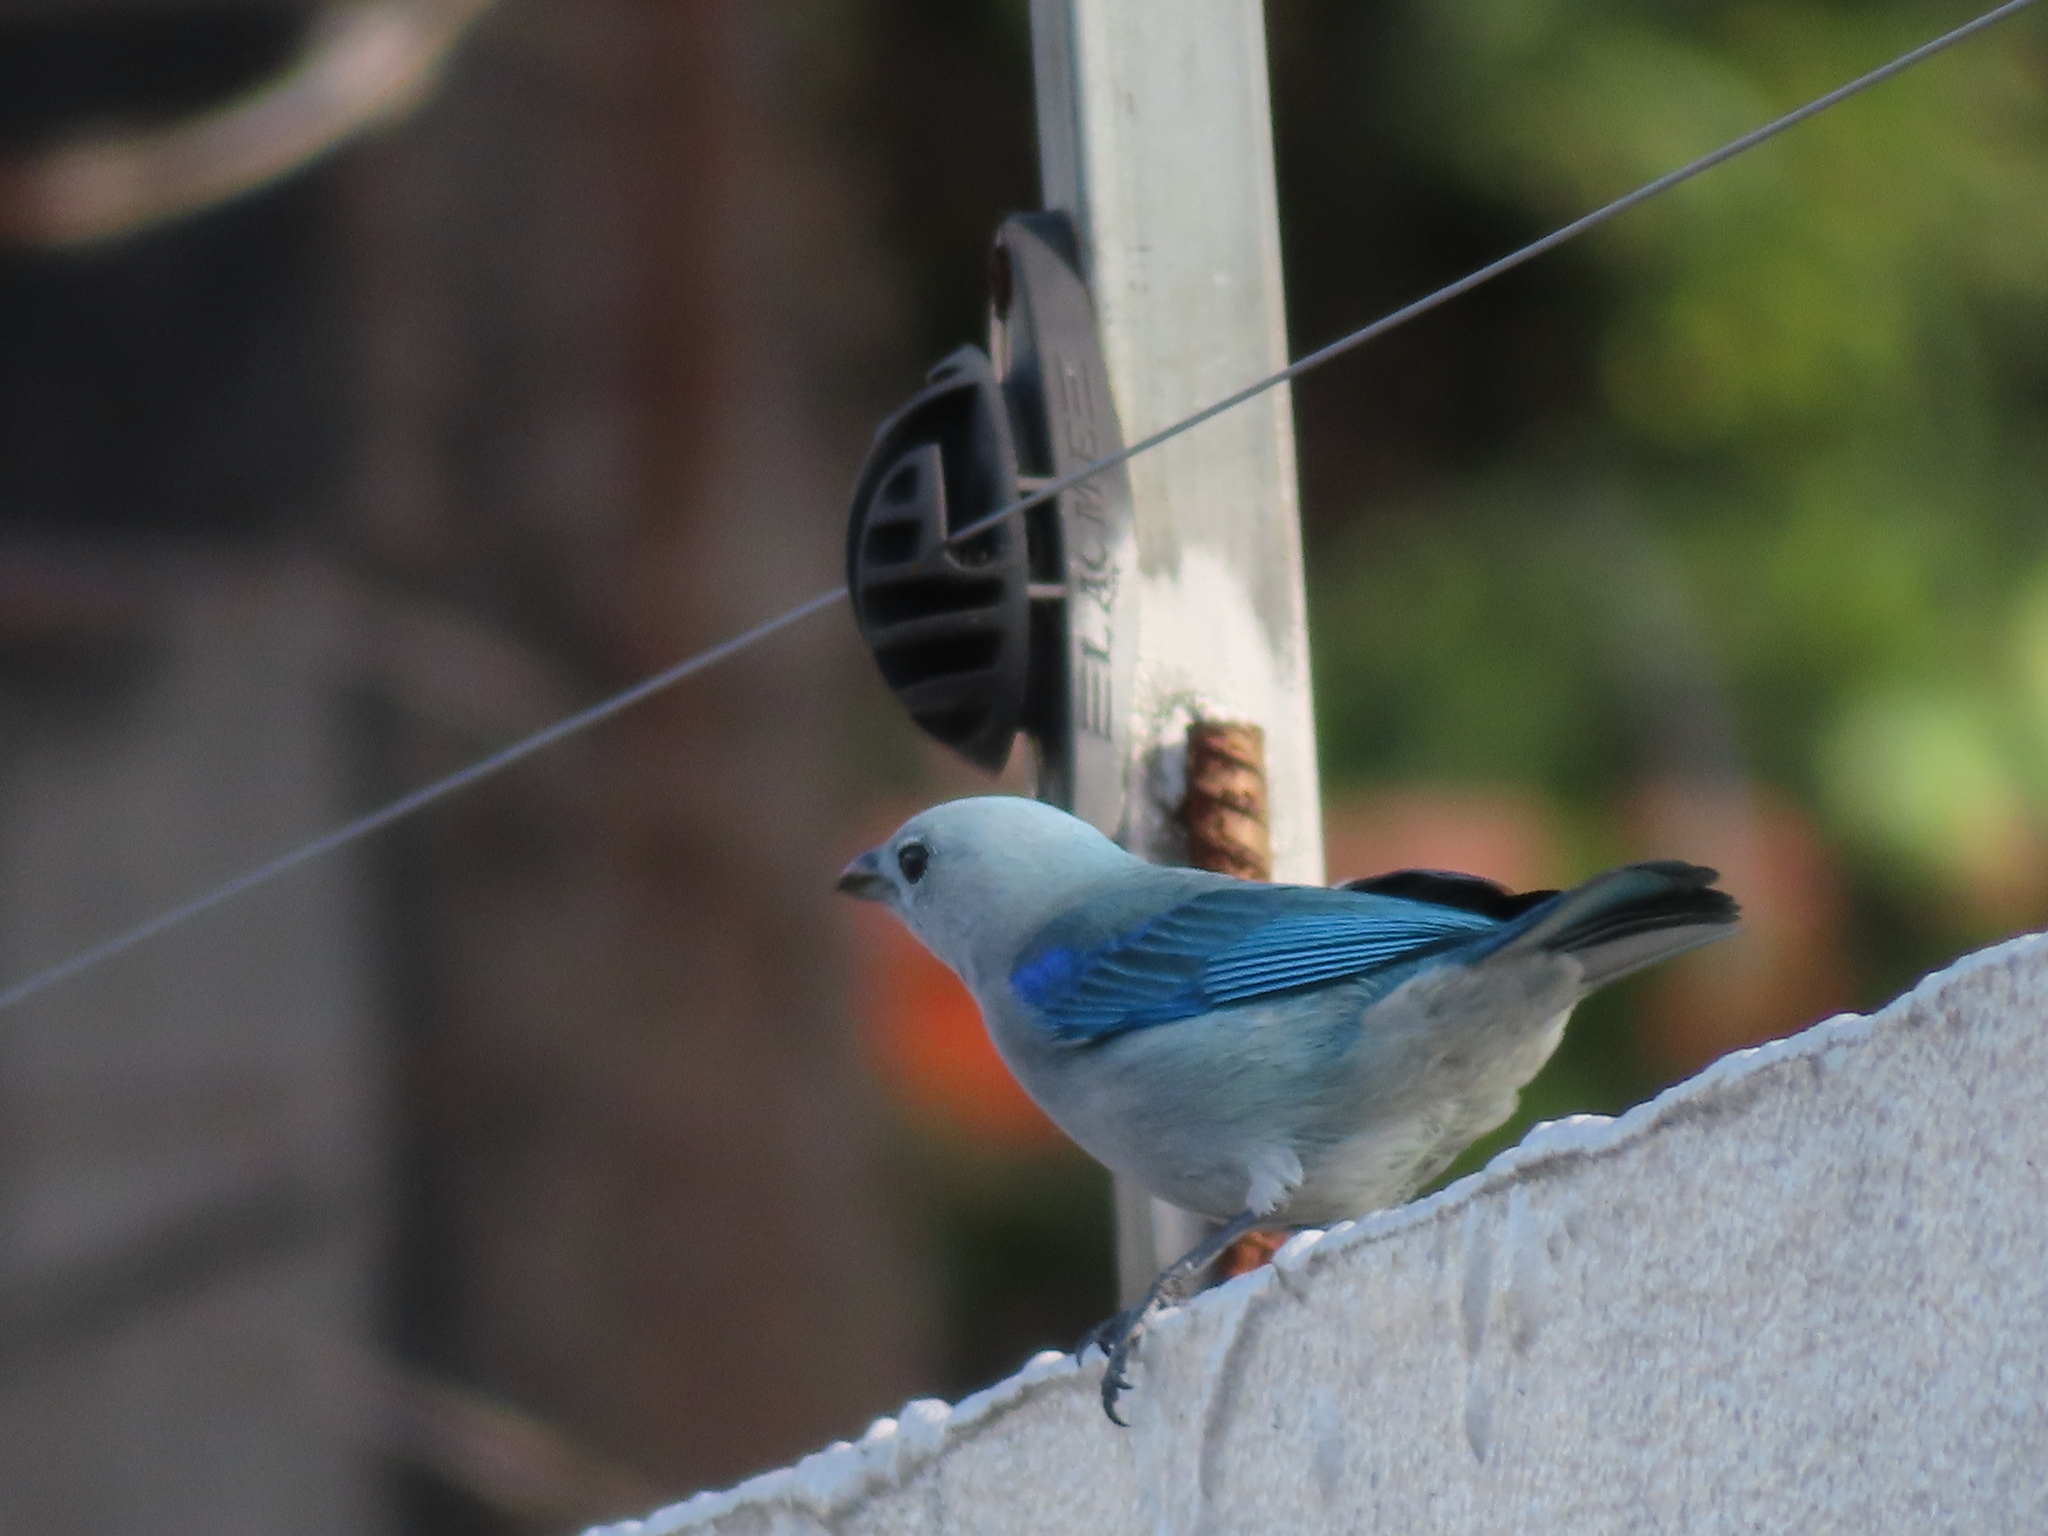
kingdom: Animalia
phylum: Chordata
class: Aves
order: Passeriformes
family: Thraupidae
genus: Thraupis
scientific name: Thraupis episcopus
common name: Blue-grey tanager
